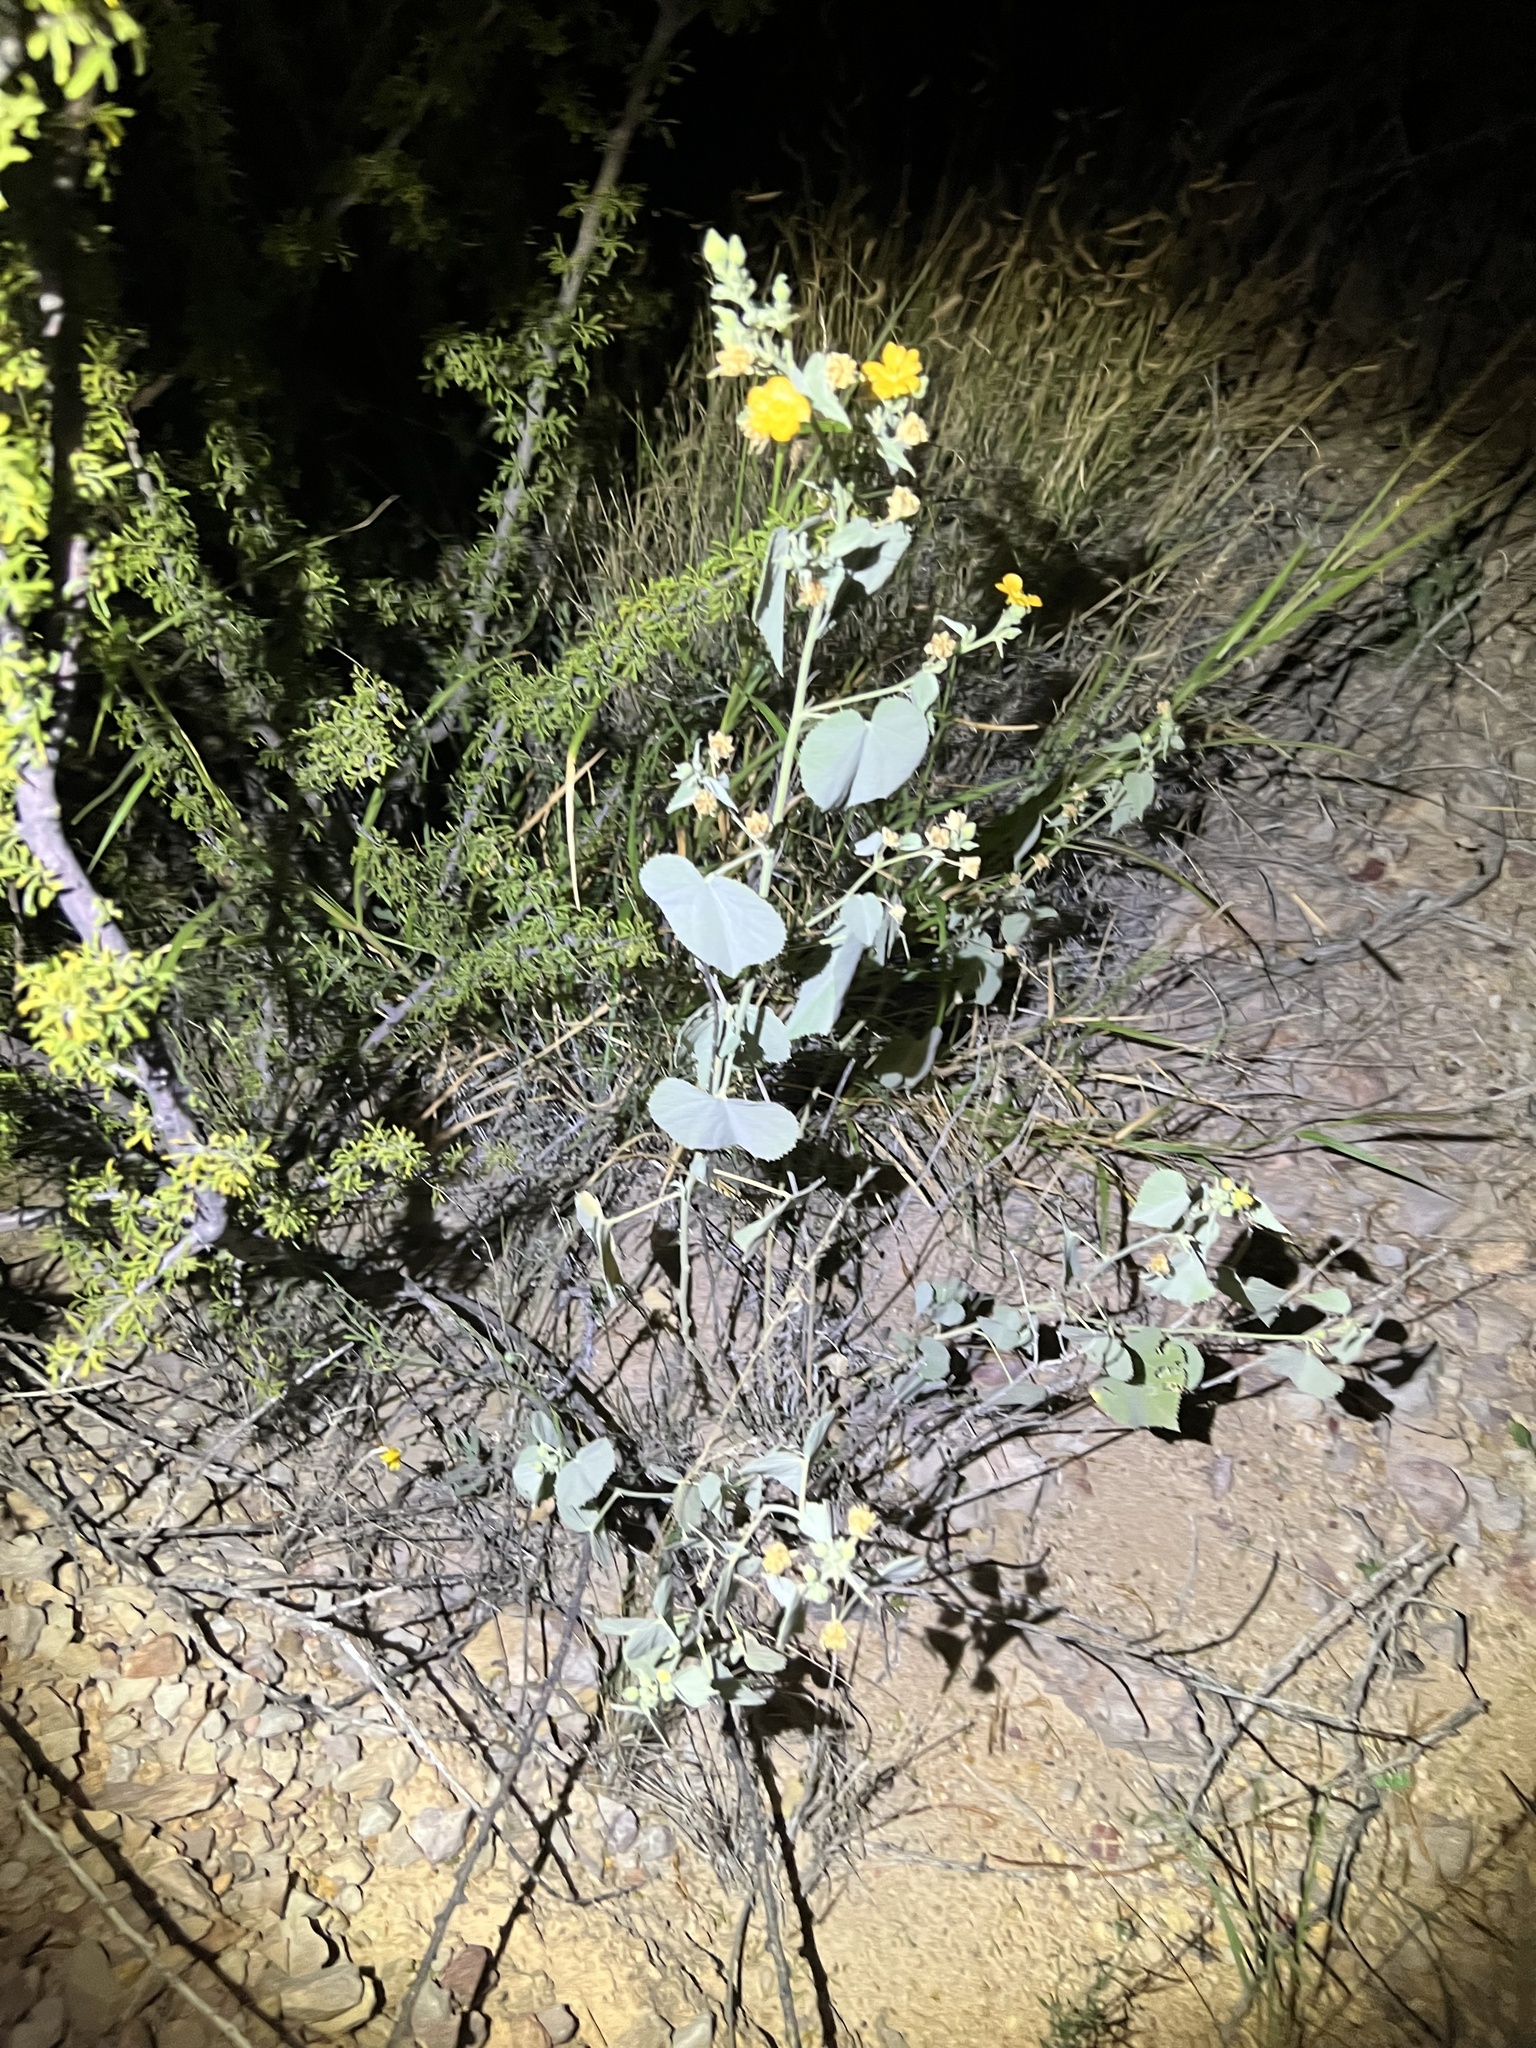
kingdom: Plantae
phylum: Tracheophyta
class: Magnoliopsida
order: Malvales
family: Malvaceae
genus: Abutilon
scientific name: Abutilon malacum
